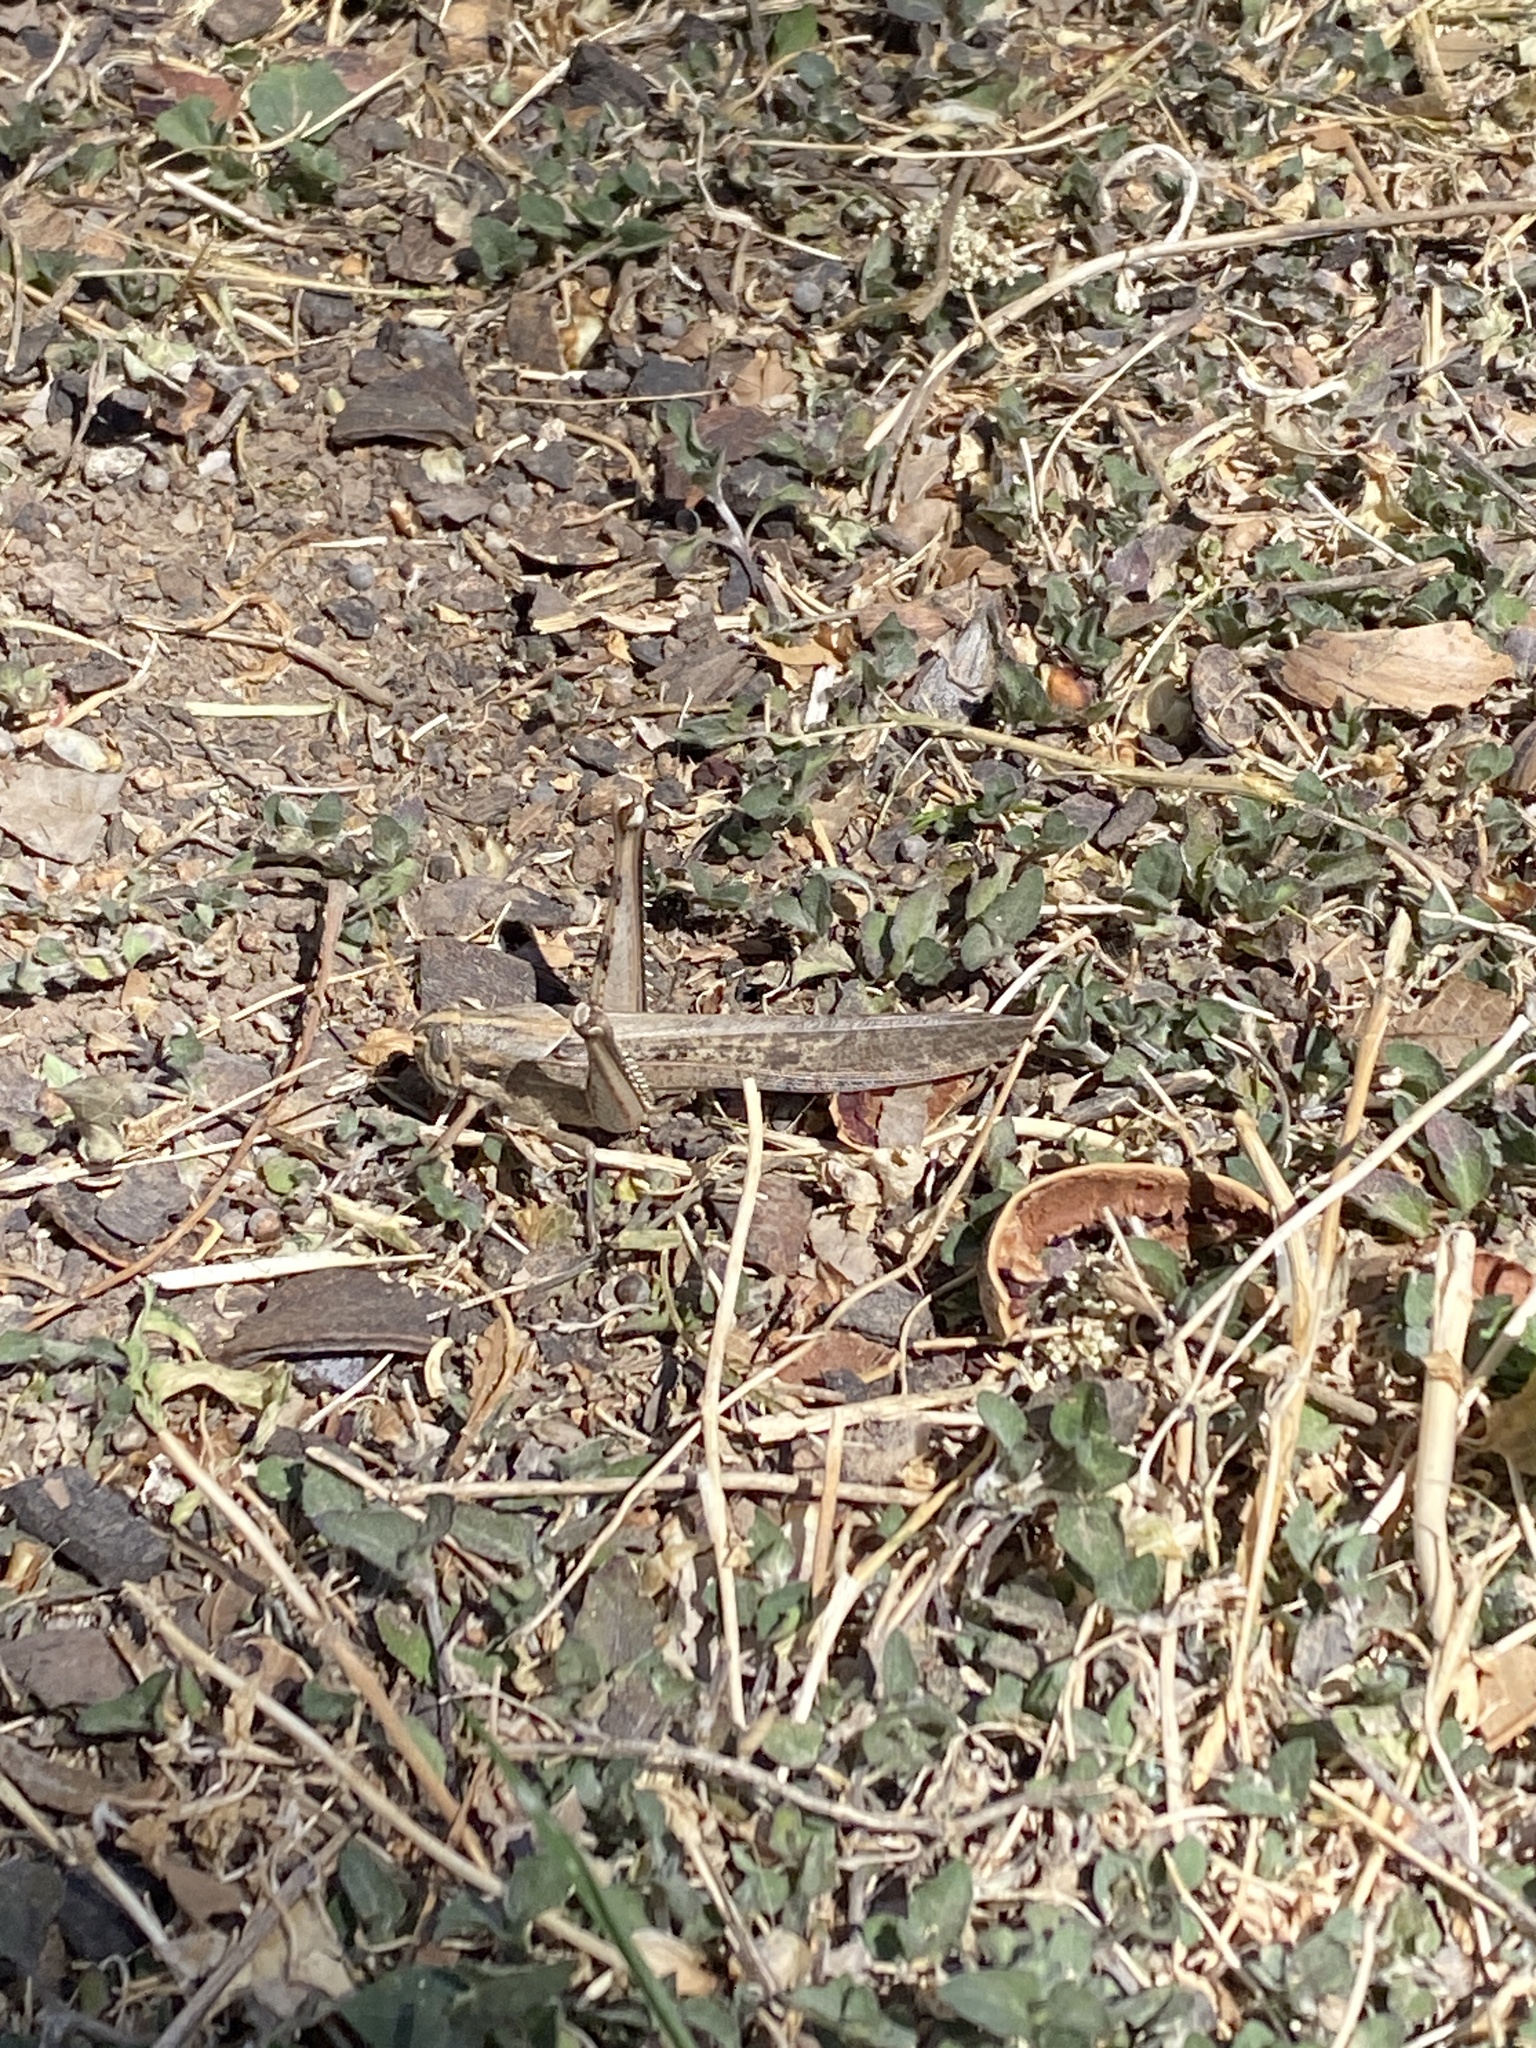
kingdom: Animalia
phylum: Arthropoda
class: Insecta
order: Orthoptera
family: Acrididae
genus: Schistocerca
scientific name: Schistocerca nitens
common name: Vagrant grasshopper
